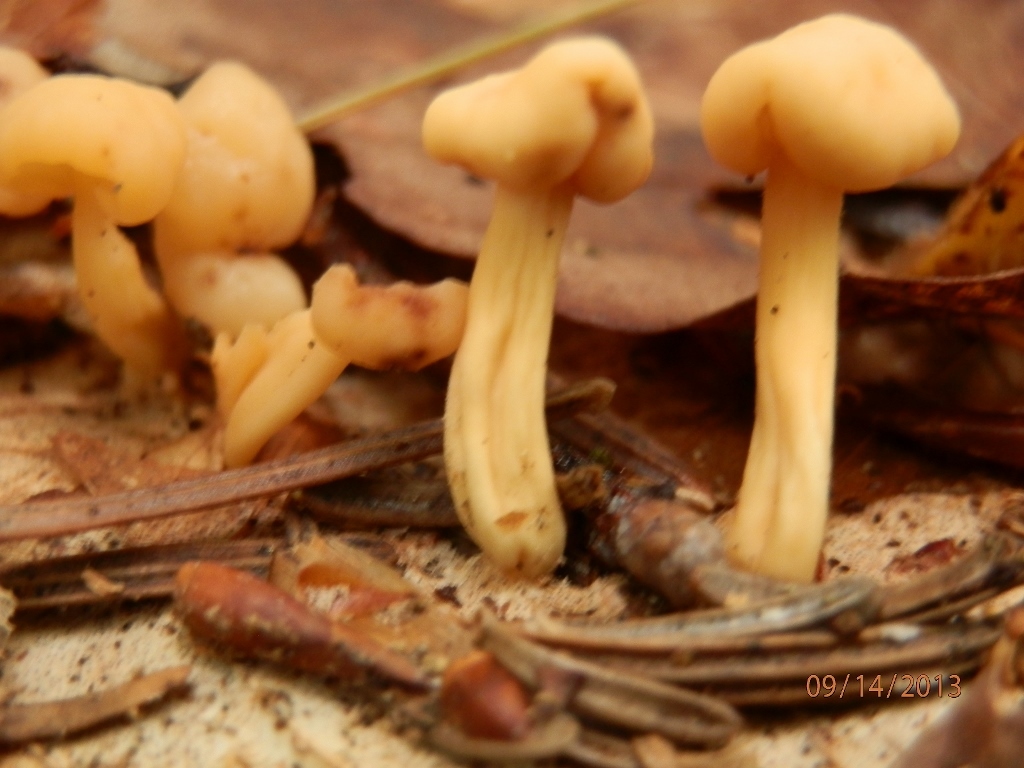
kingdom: Fungi
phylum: Ascomycota
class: Leotiomycetes
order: Rhytismatales
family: Cudoniaceae
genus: Cudonia
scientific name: Cudonia lutea
